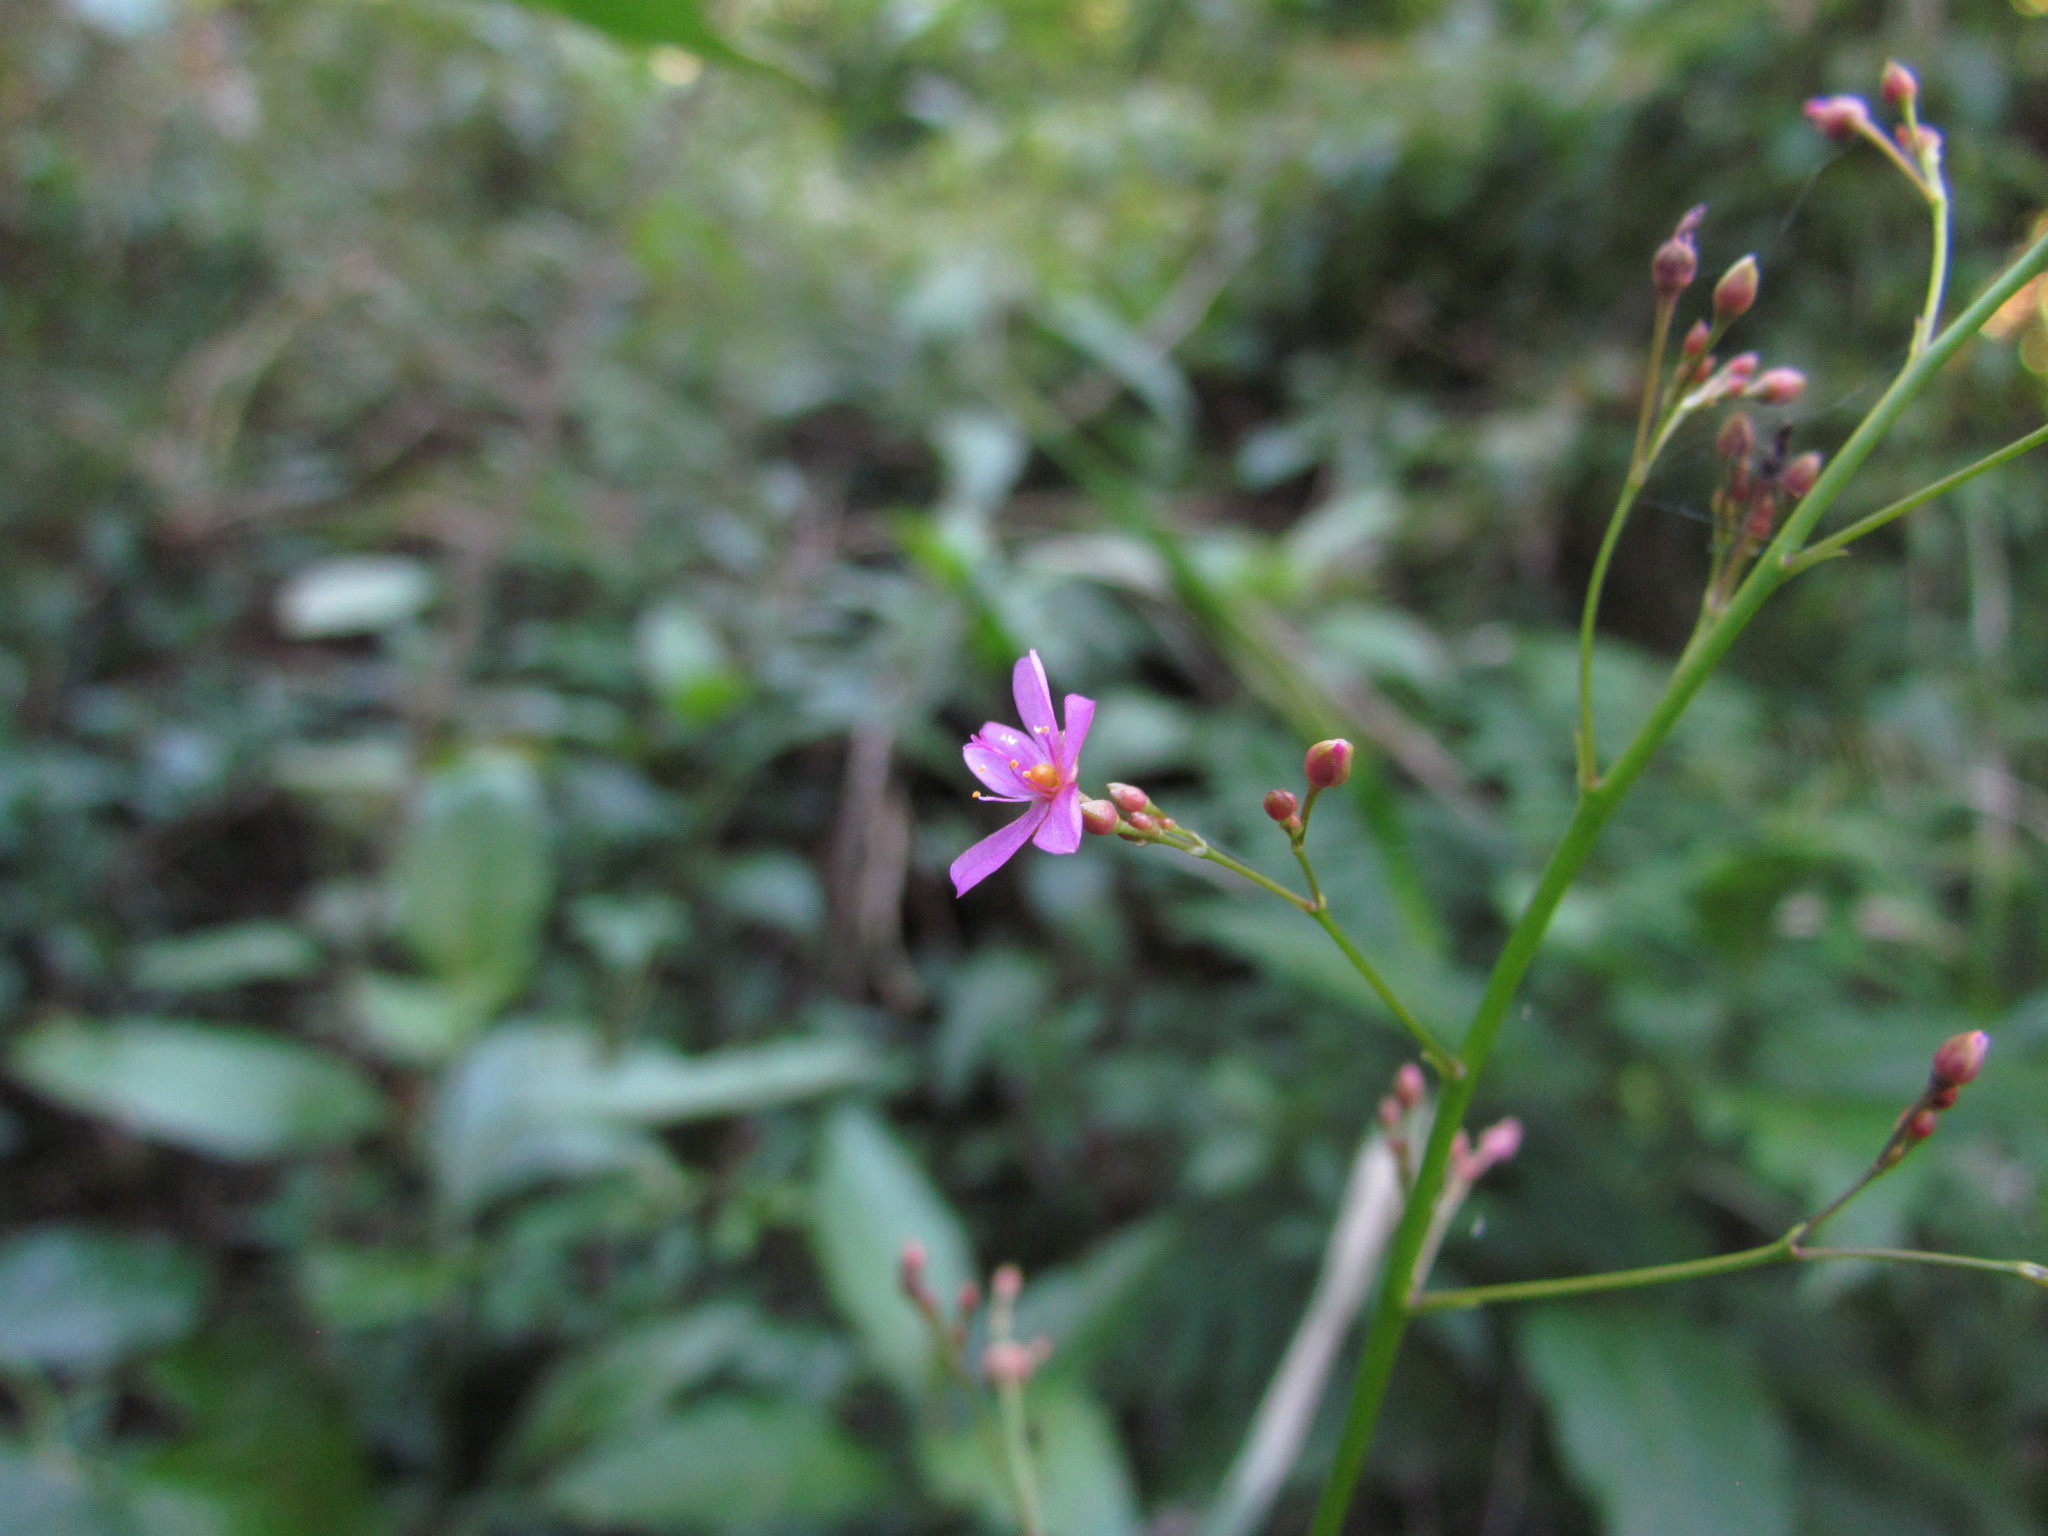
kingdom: Plantae
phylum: Tracheophyta
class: Magnoliopsida
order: Caryophyllales
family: Talinaceae
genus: Talinum
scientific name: Talinum paniculatum
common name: Jewels of opar
